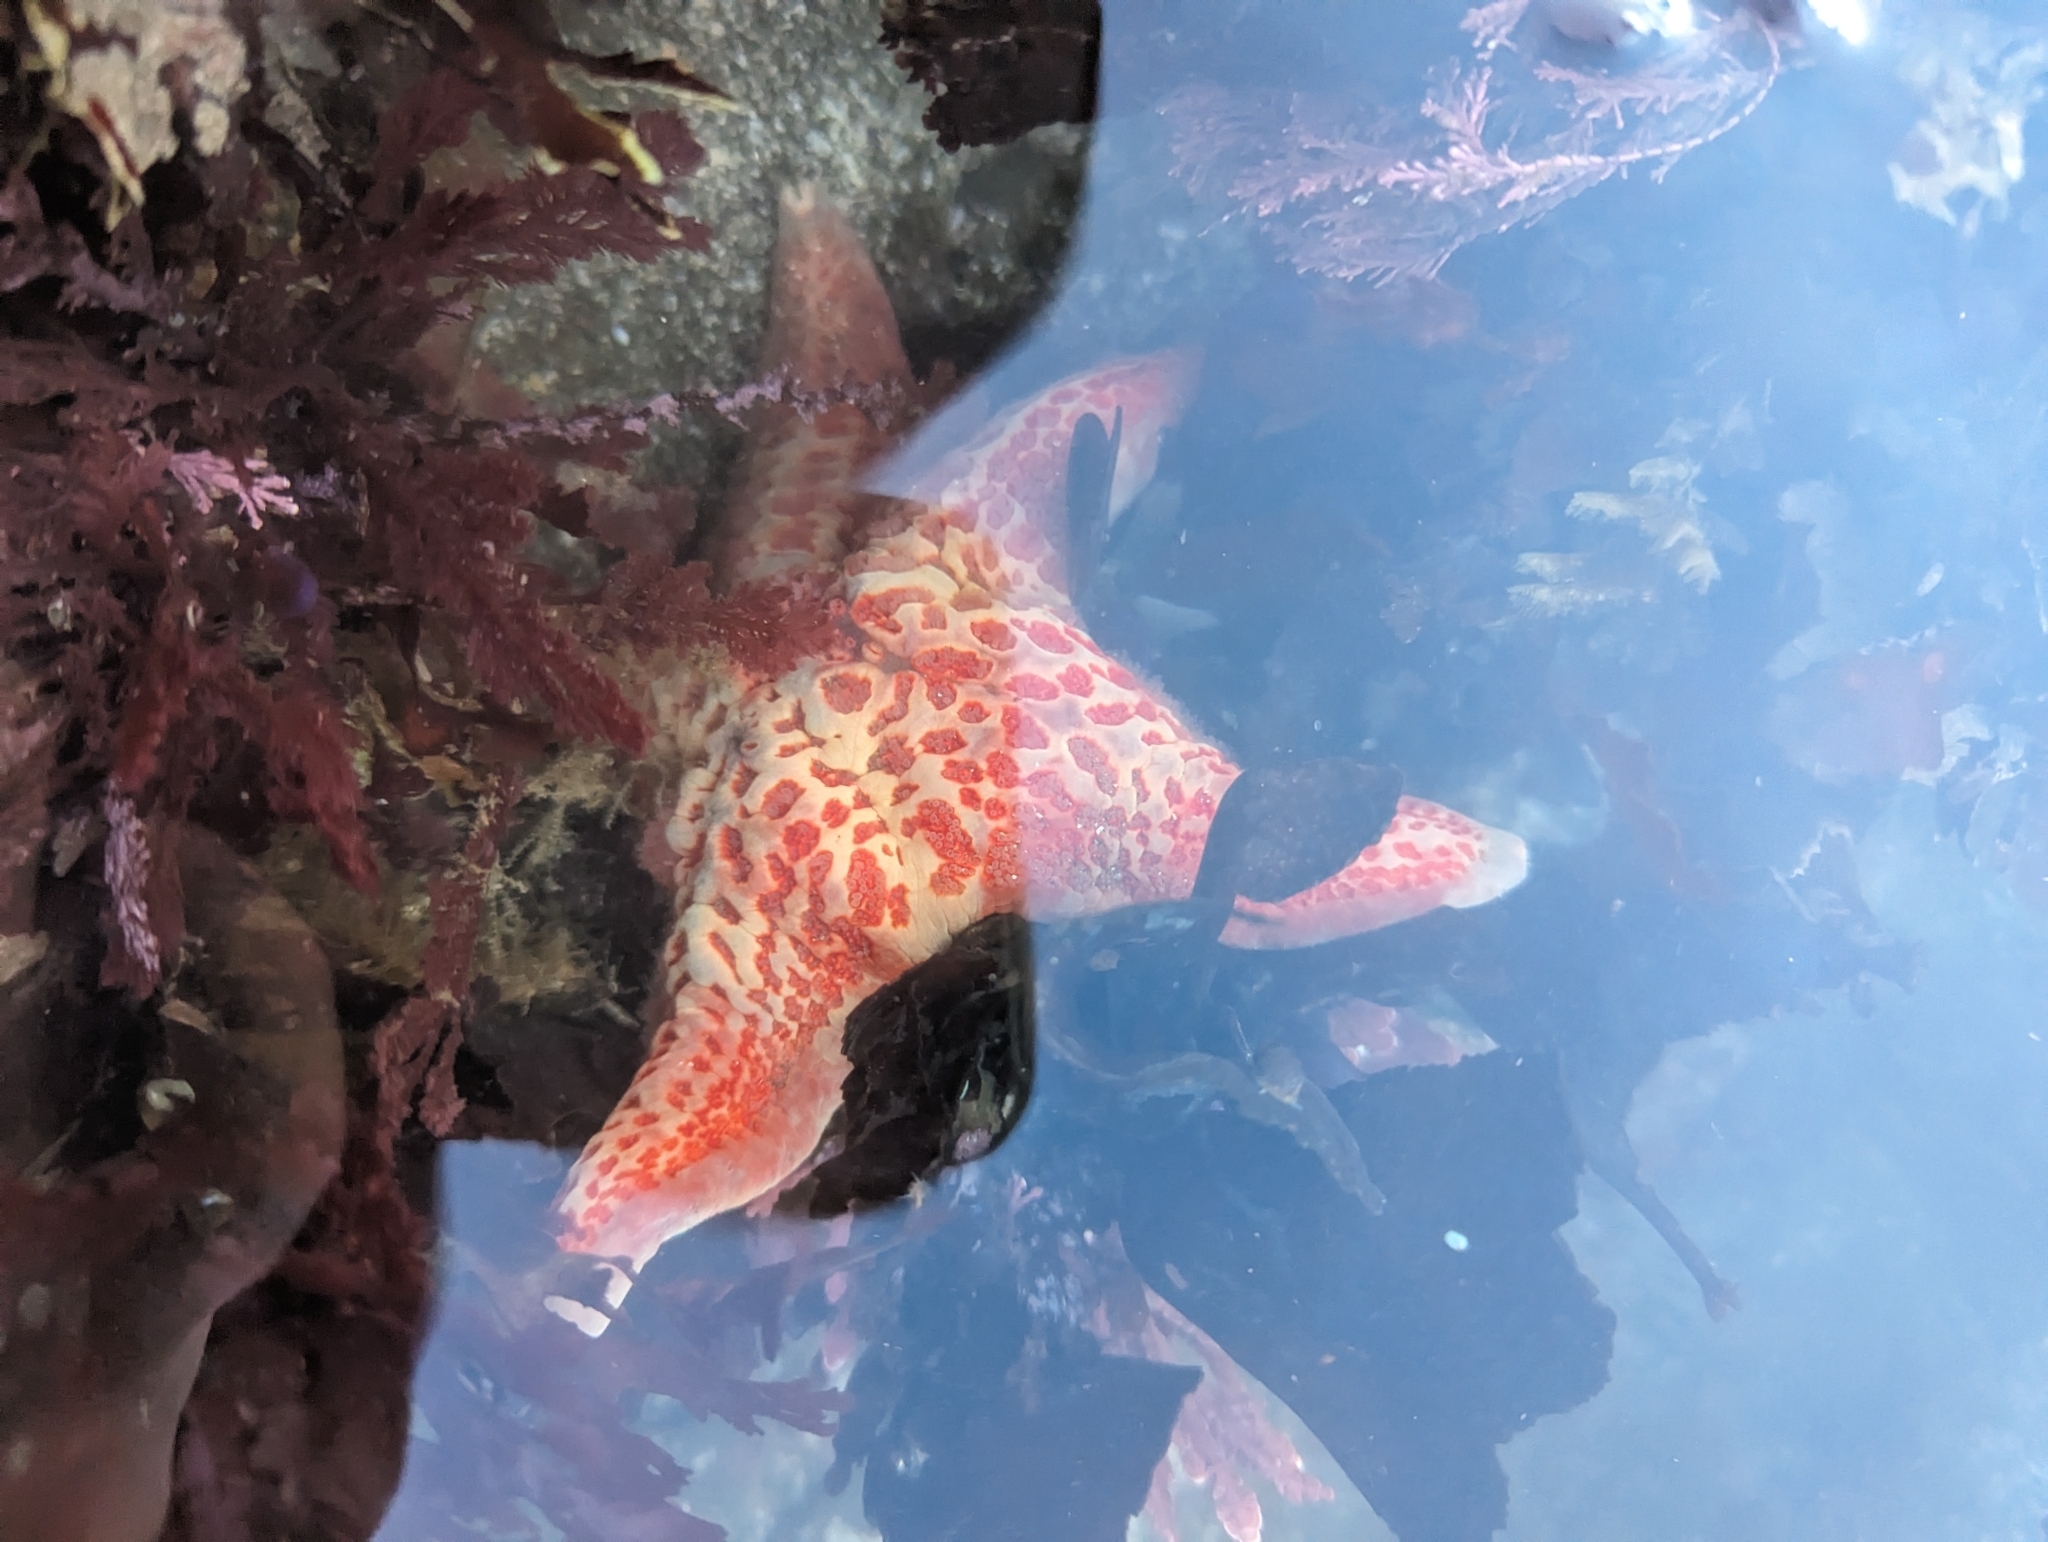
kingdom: Animalia
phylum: Echinodermata
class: Asteroidea
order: Valvatida
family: Asteropseidae
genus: Dermasterias
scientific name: Dermasterias imbricata
